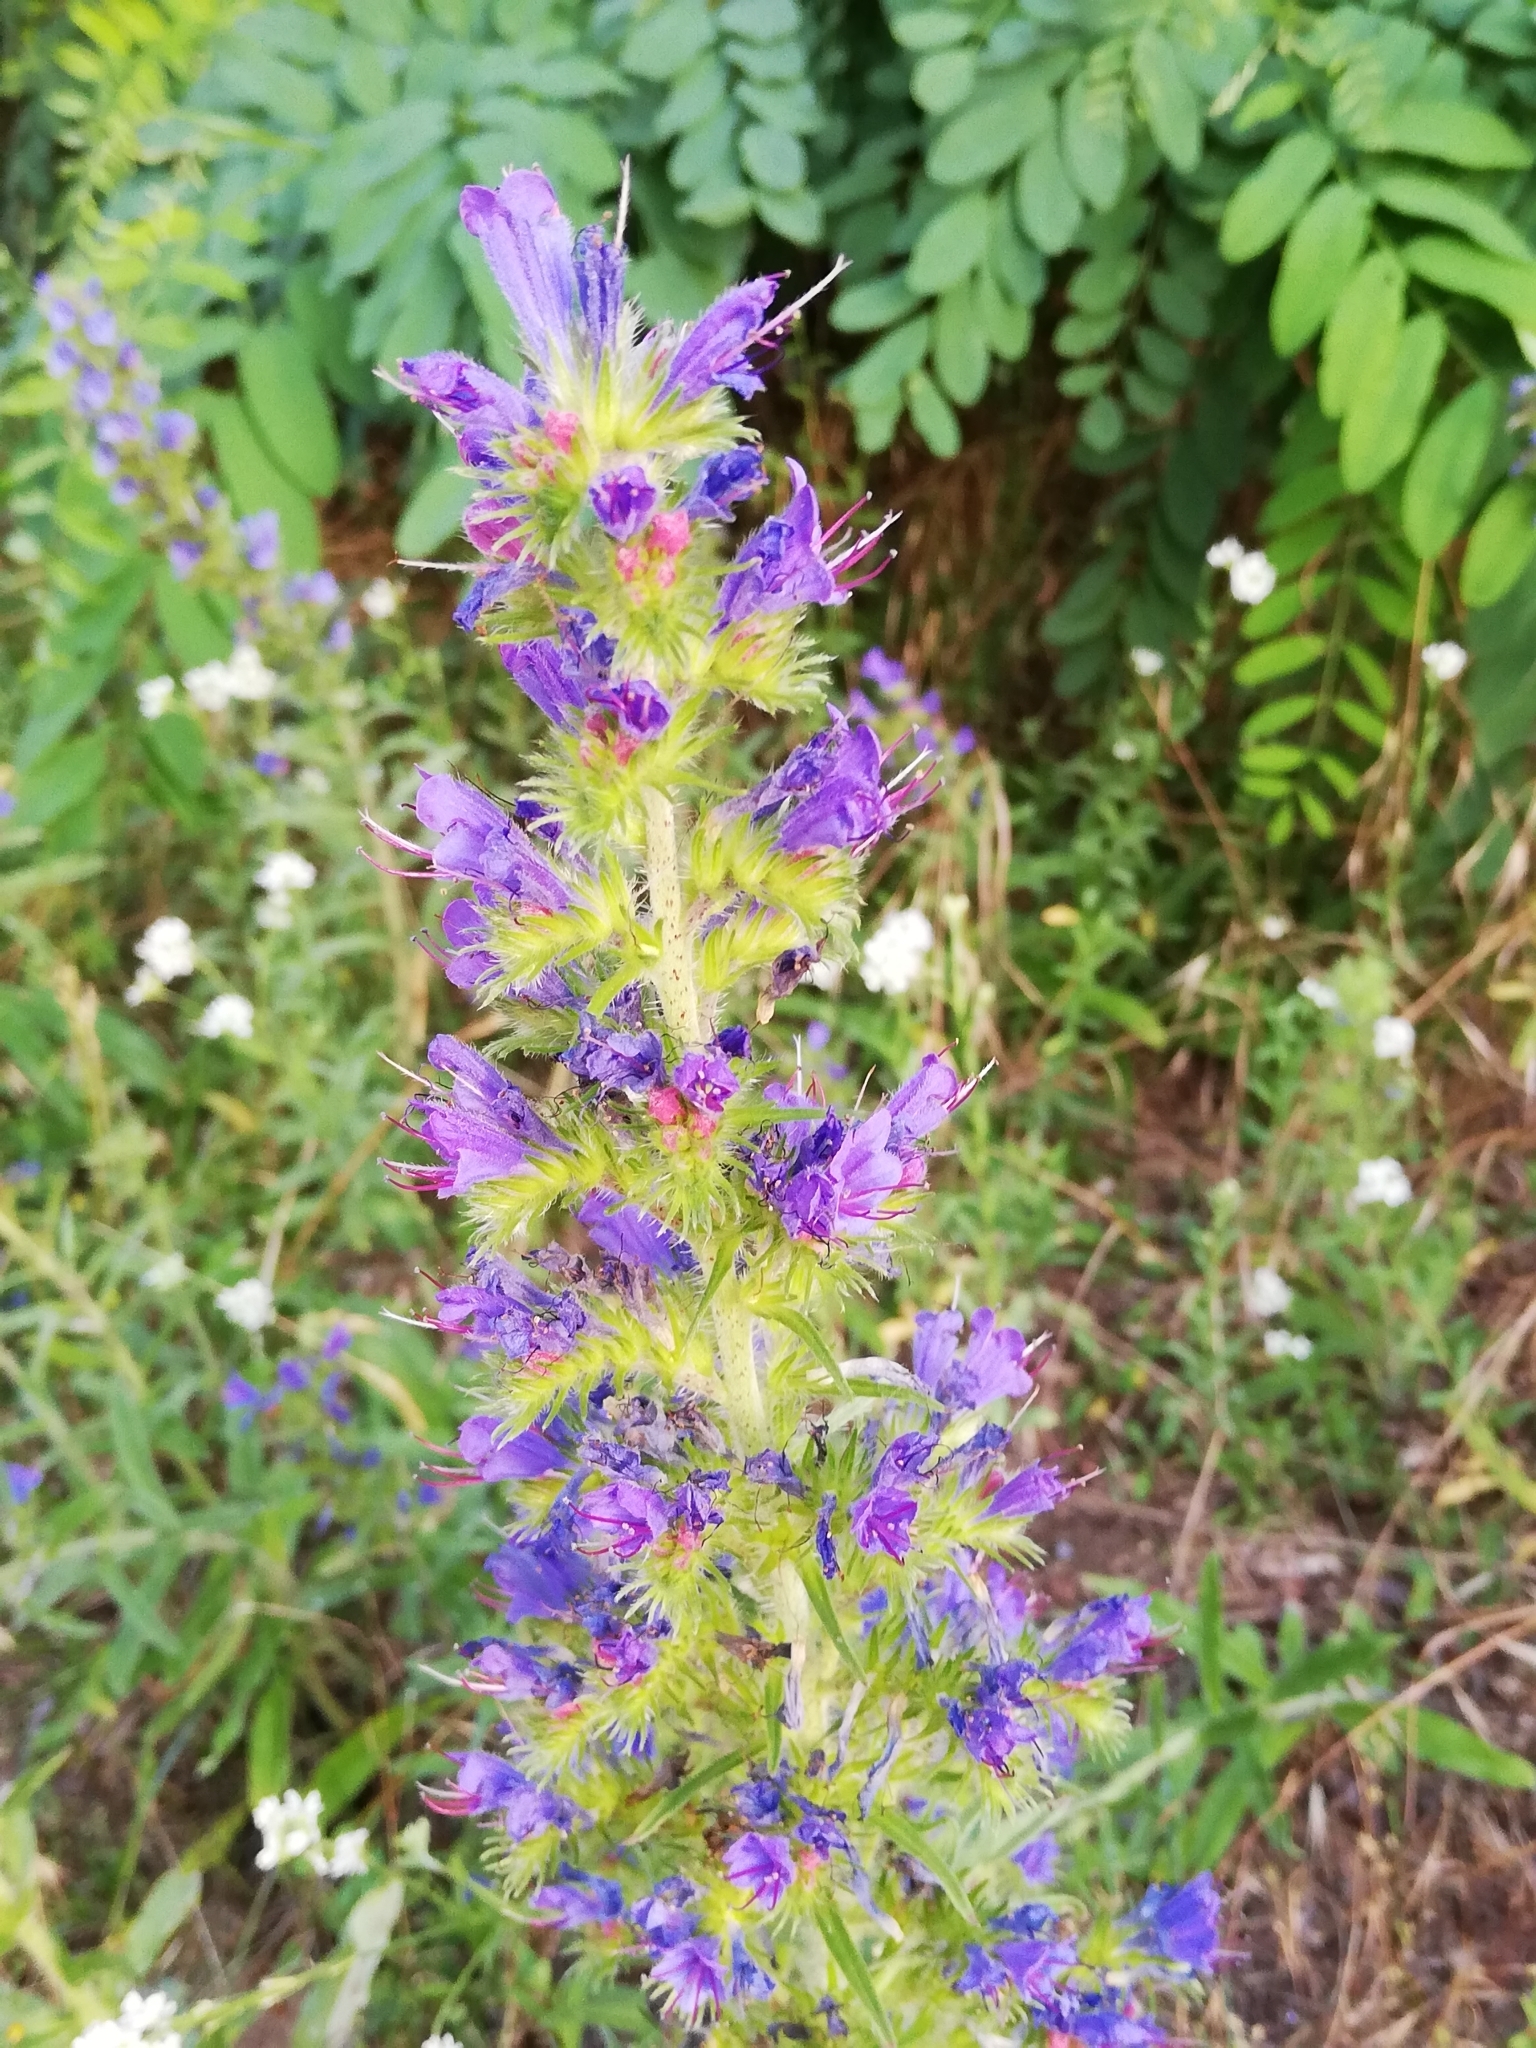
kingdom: Plantae
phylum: Tracheophyta
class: Magnoliopsida
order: Boraginales
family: Boraginaceae
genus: Echium
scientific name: Echium vulgare
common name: Common viper's bugloss
